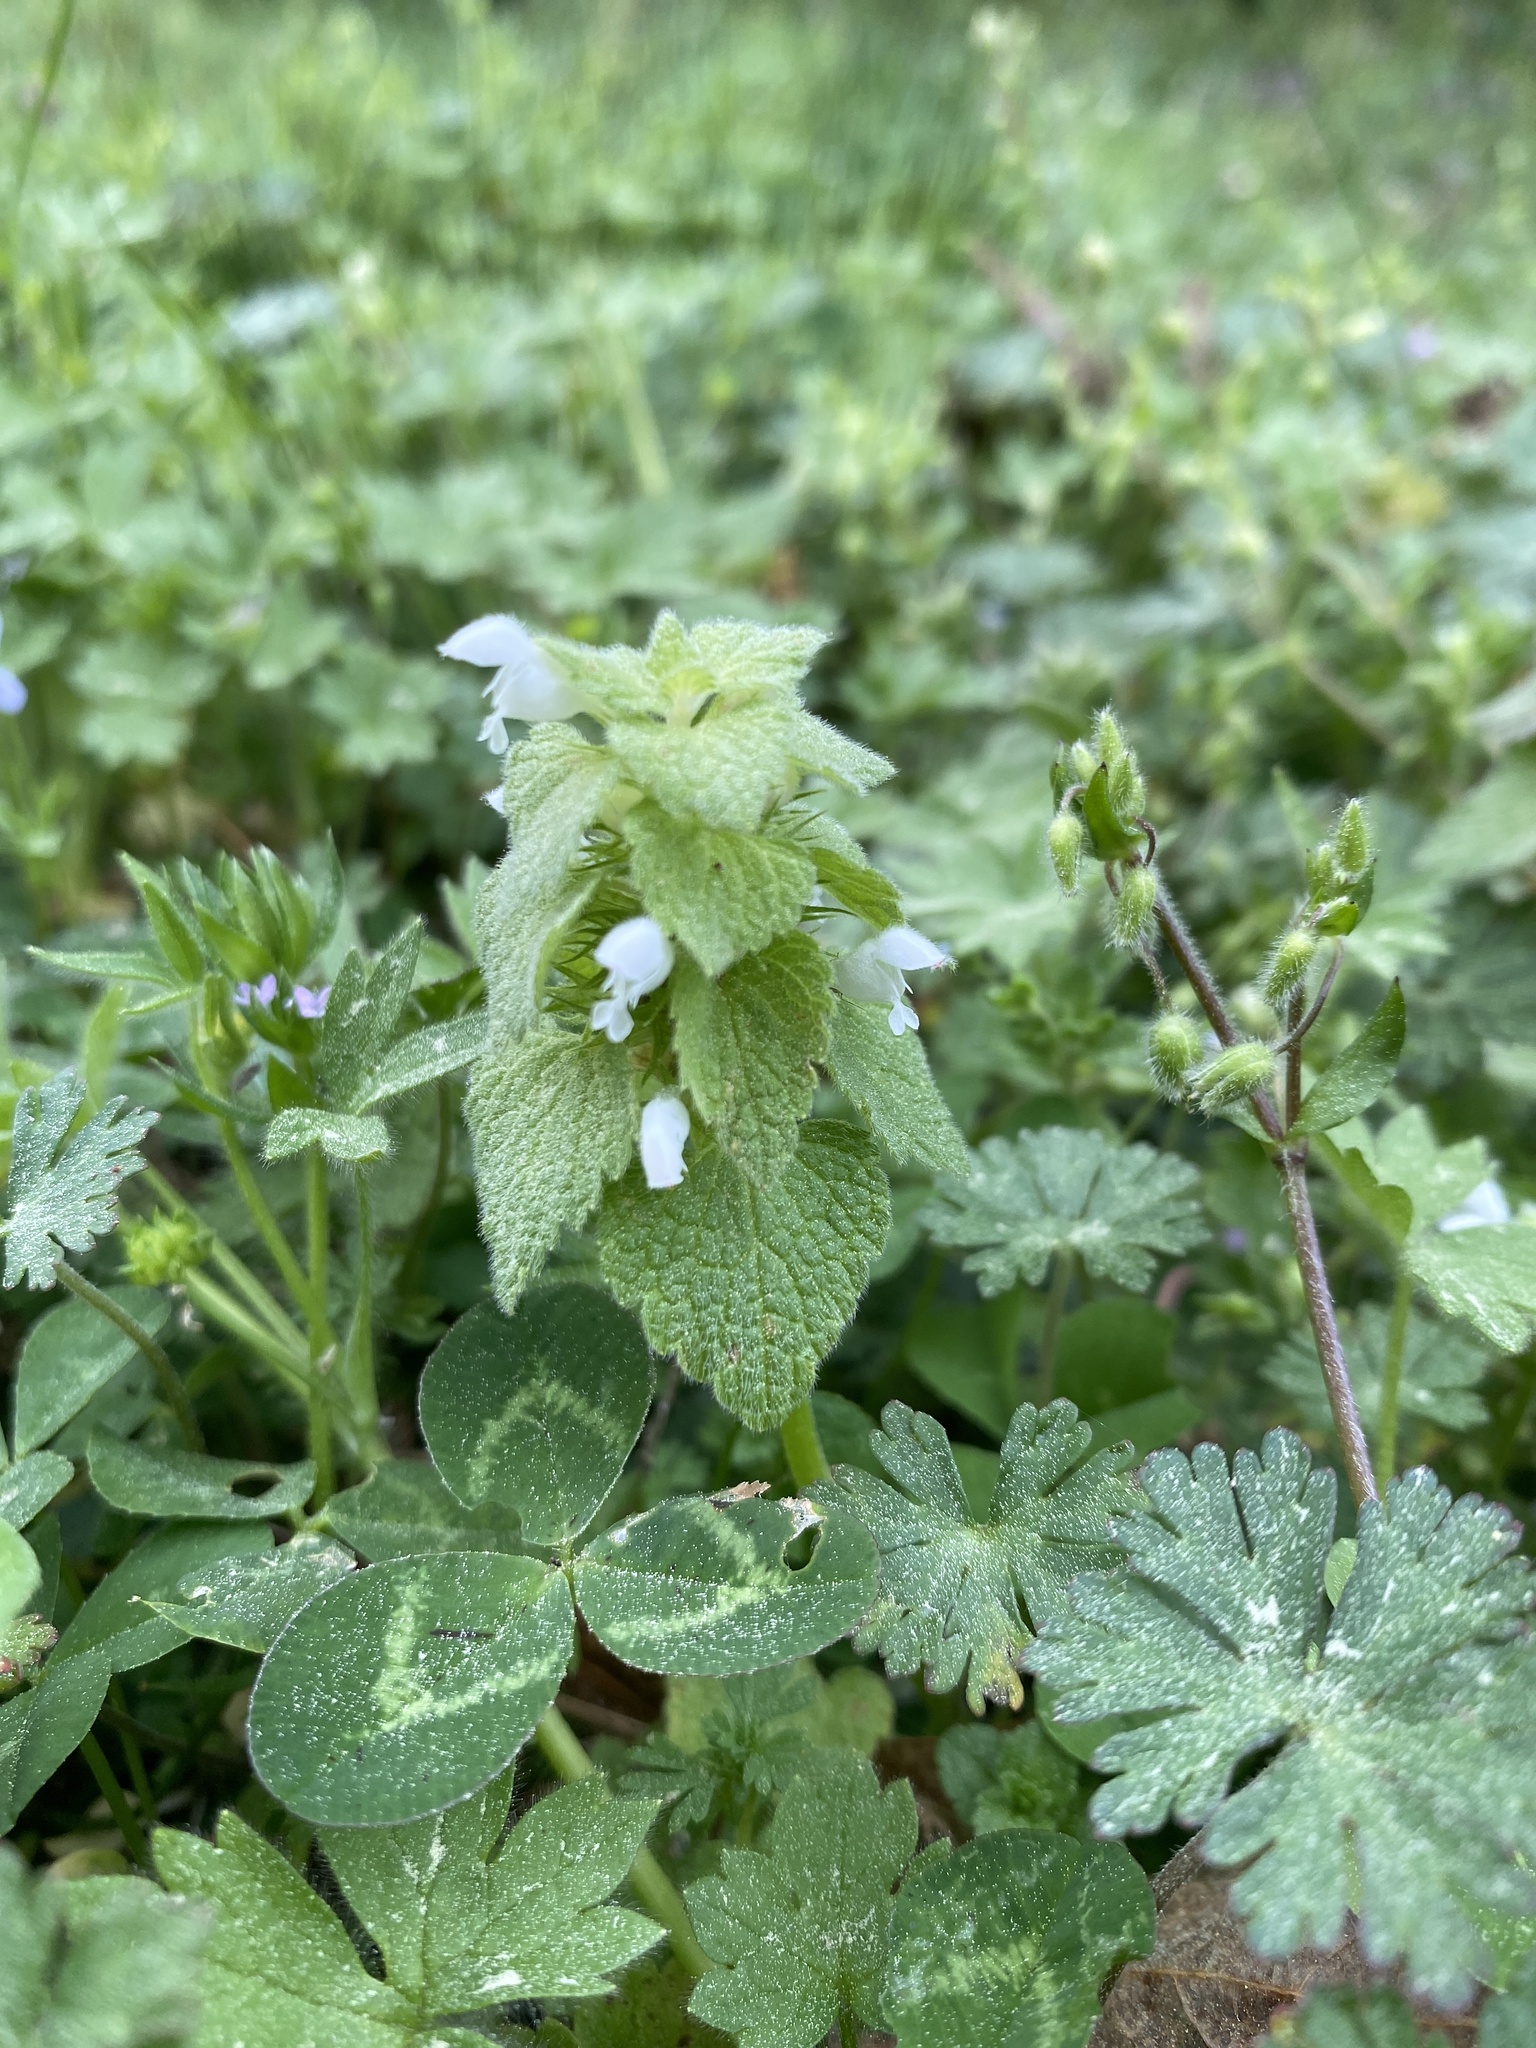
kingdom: Plantae
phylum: Tracheophyta
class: Magnoliopsida
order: Lamiales
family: Lamiaceae
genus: Lamium
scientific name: Lamium purpureum
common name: Red dead-nettle
